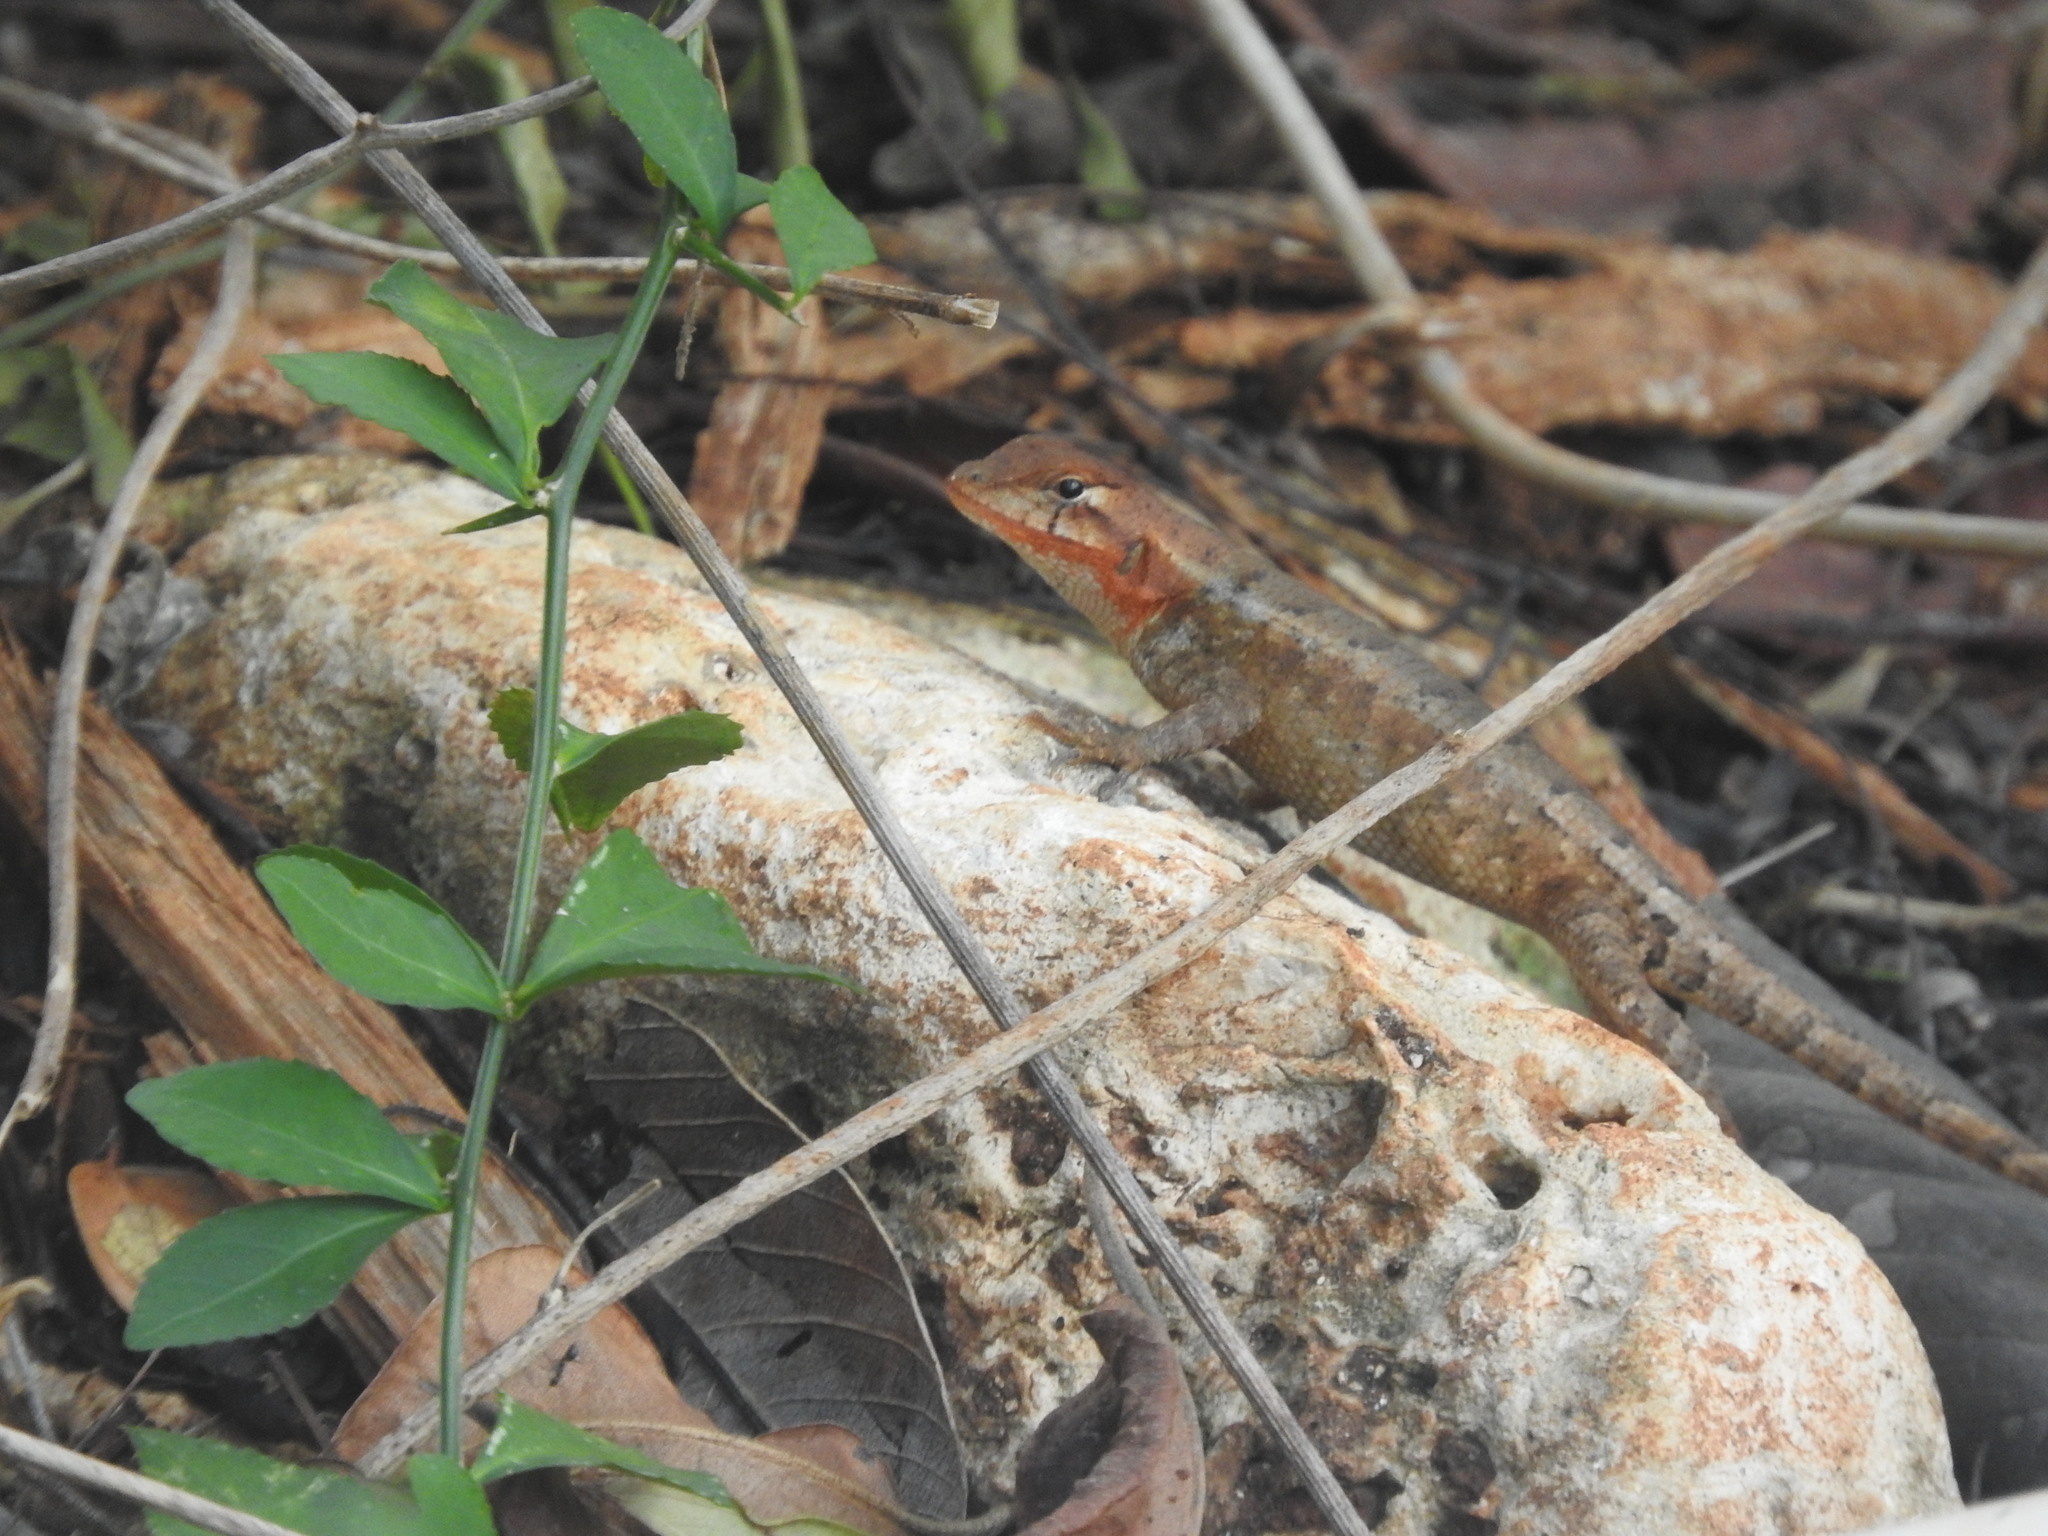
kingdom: Animalia
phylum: Chordata
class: Squamata
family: Phrynosomatidae
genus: Sceloporus
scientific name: Sceloporus chrysostictus
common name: Yellow-spotted spiny lizard
